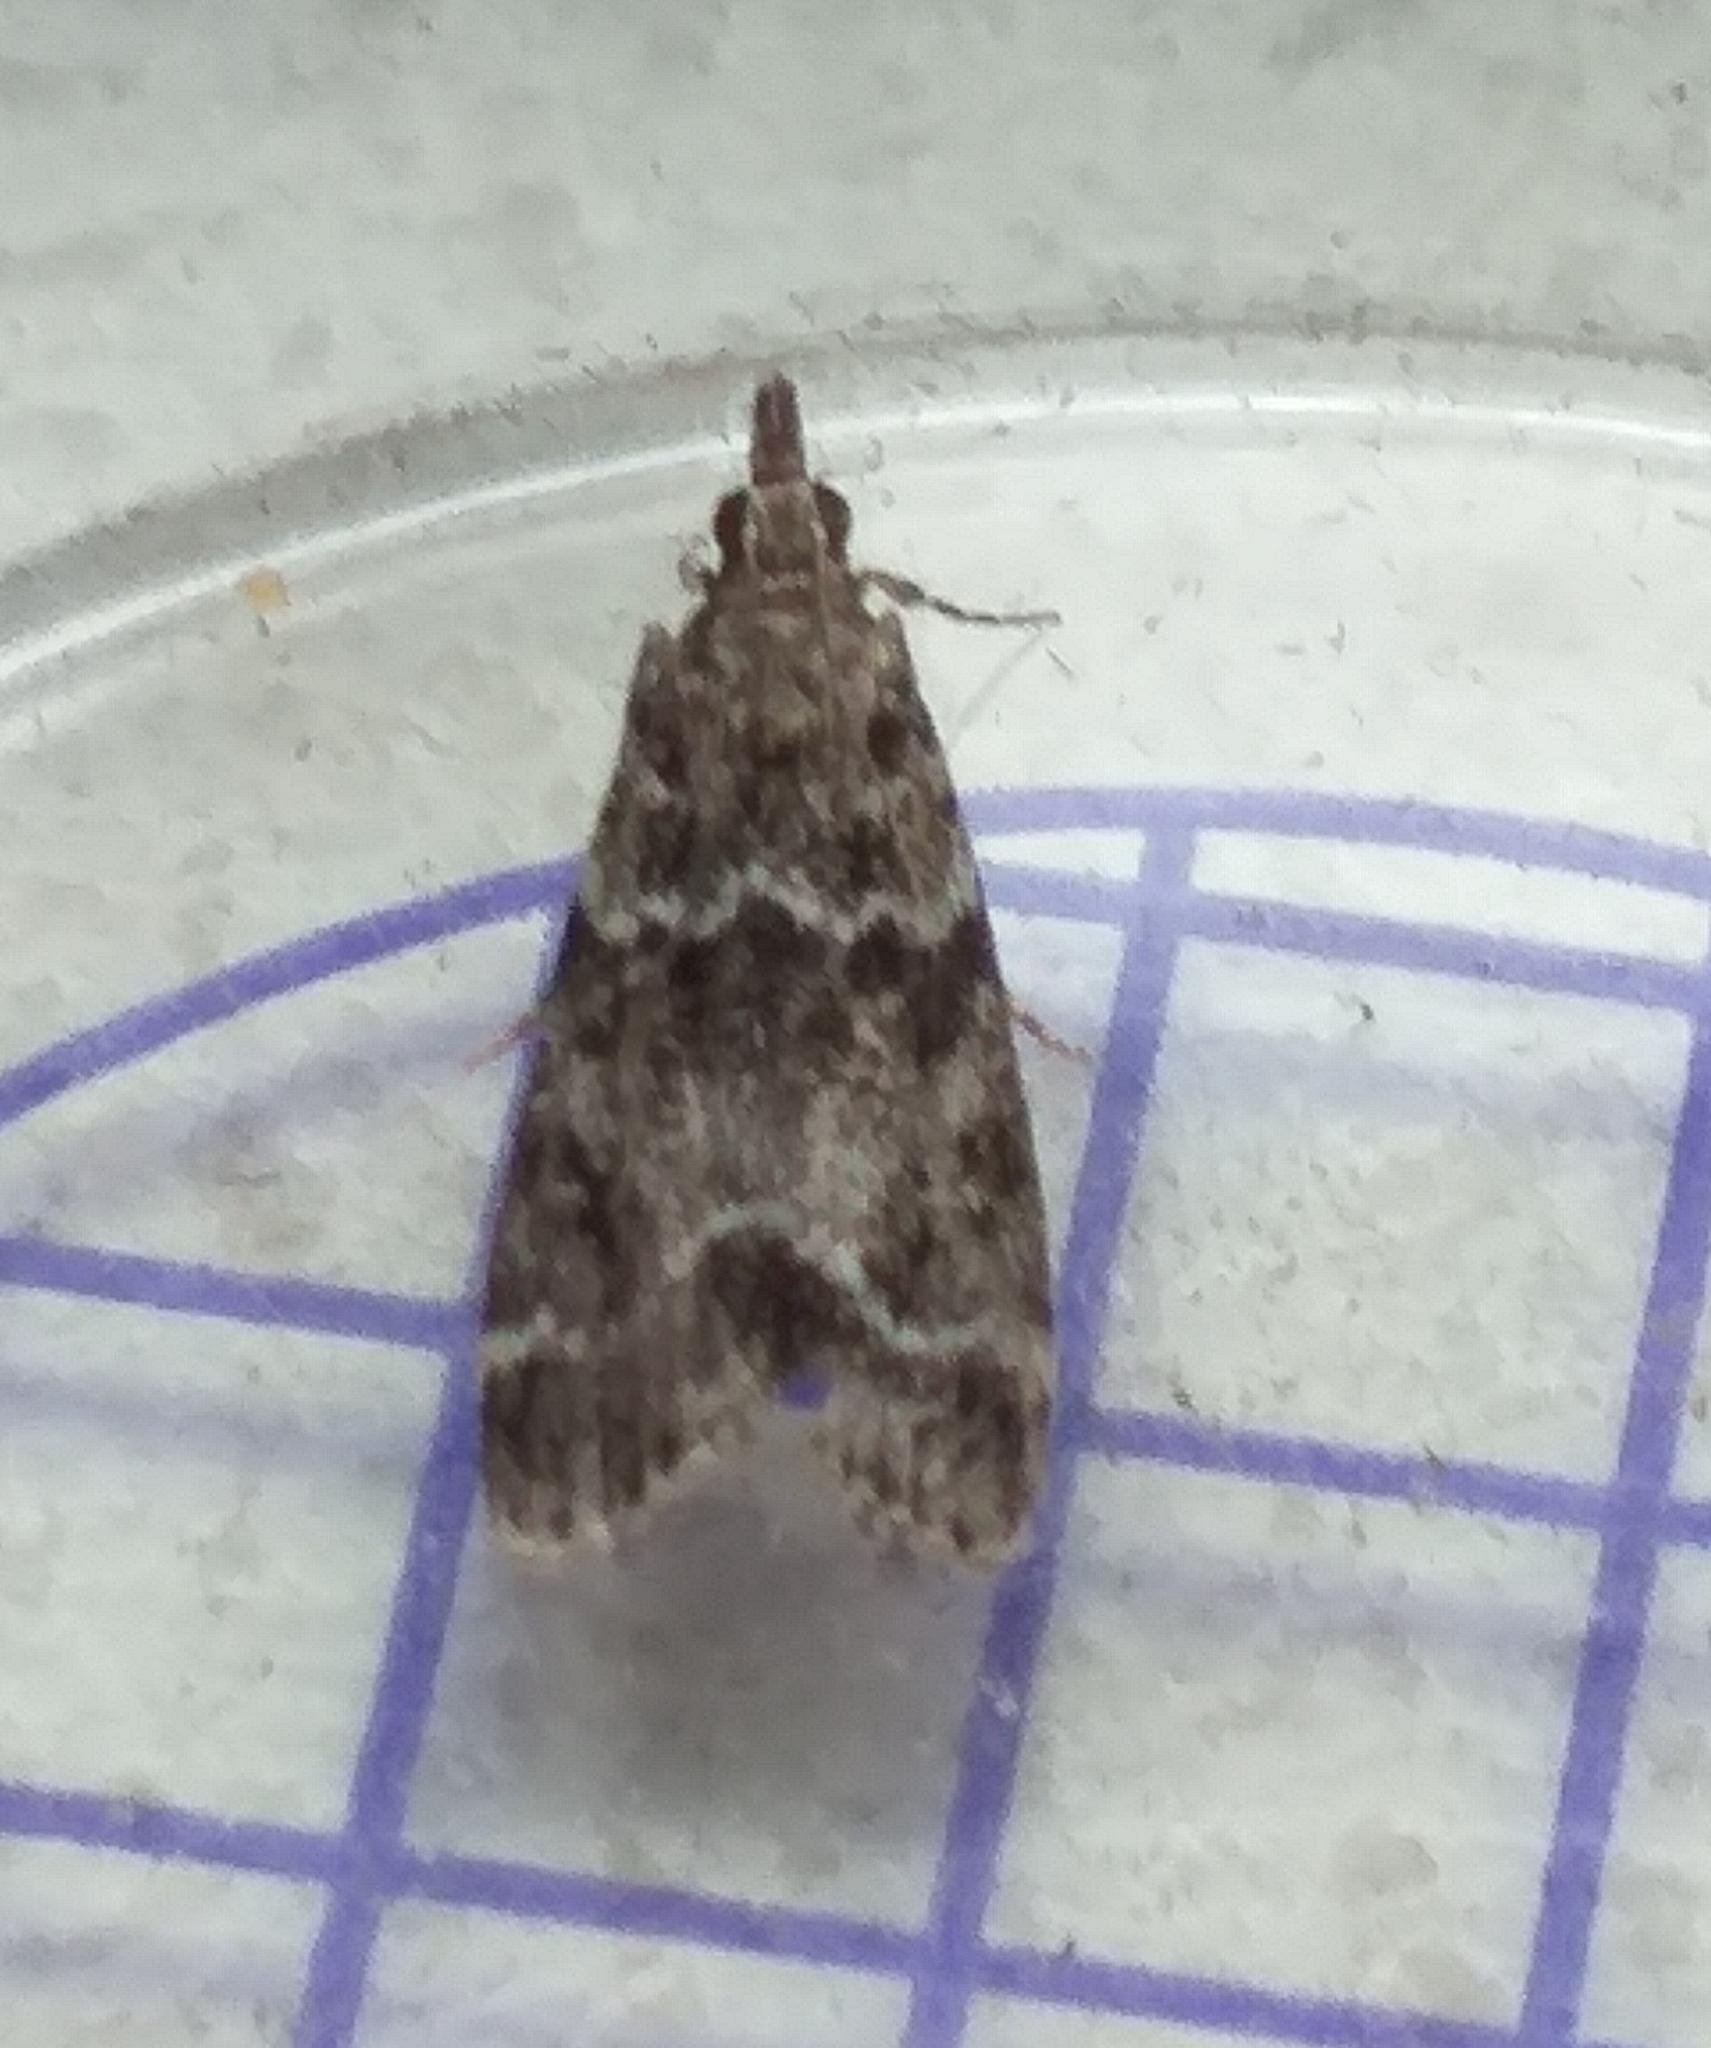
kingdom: Animalia
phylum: Arthropoda
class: Insecta
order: Lepidoptera
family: Crambidae
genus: Eudonia
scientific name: Eudonia mercurella
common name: Small grey
